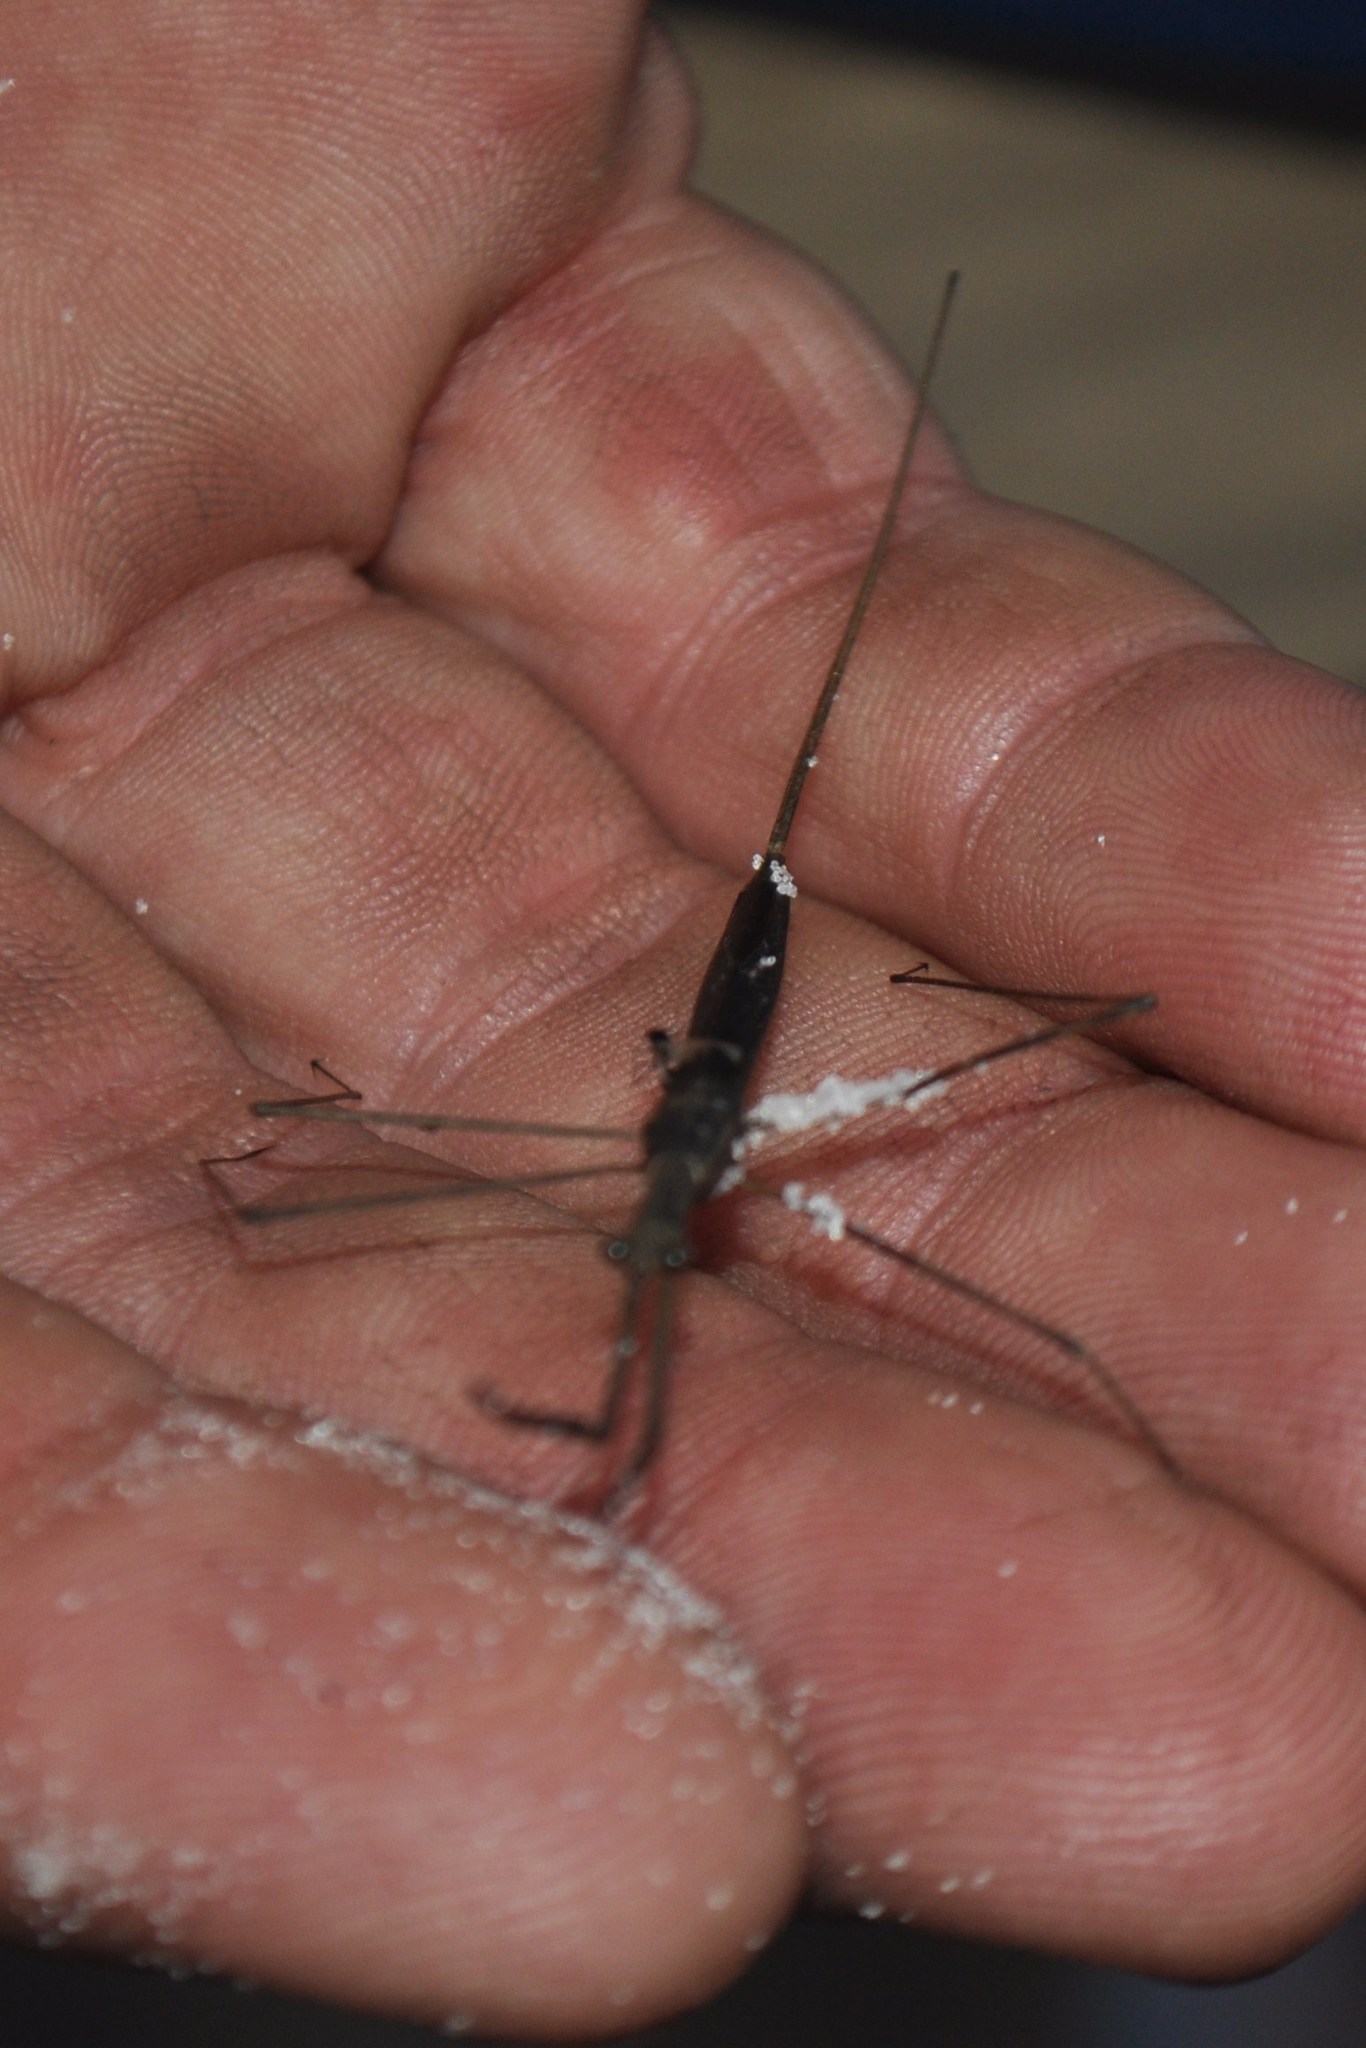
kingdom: Animalia
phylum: Arthropoda
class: Insecta
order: Hemiptera
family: Nepidae
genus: Ranatra
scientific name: Ranatra
